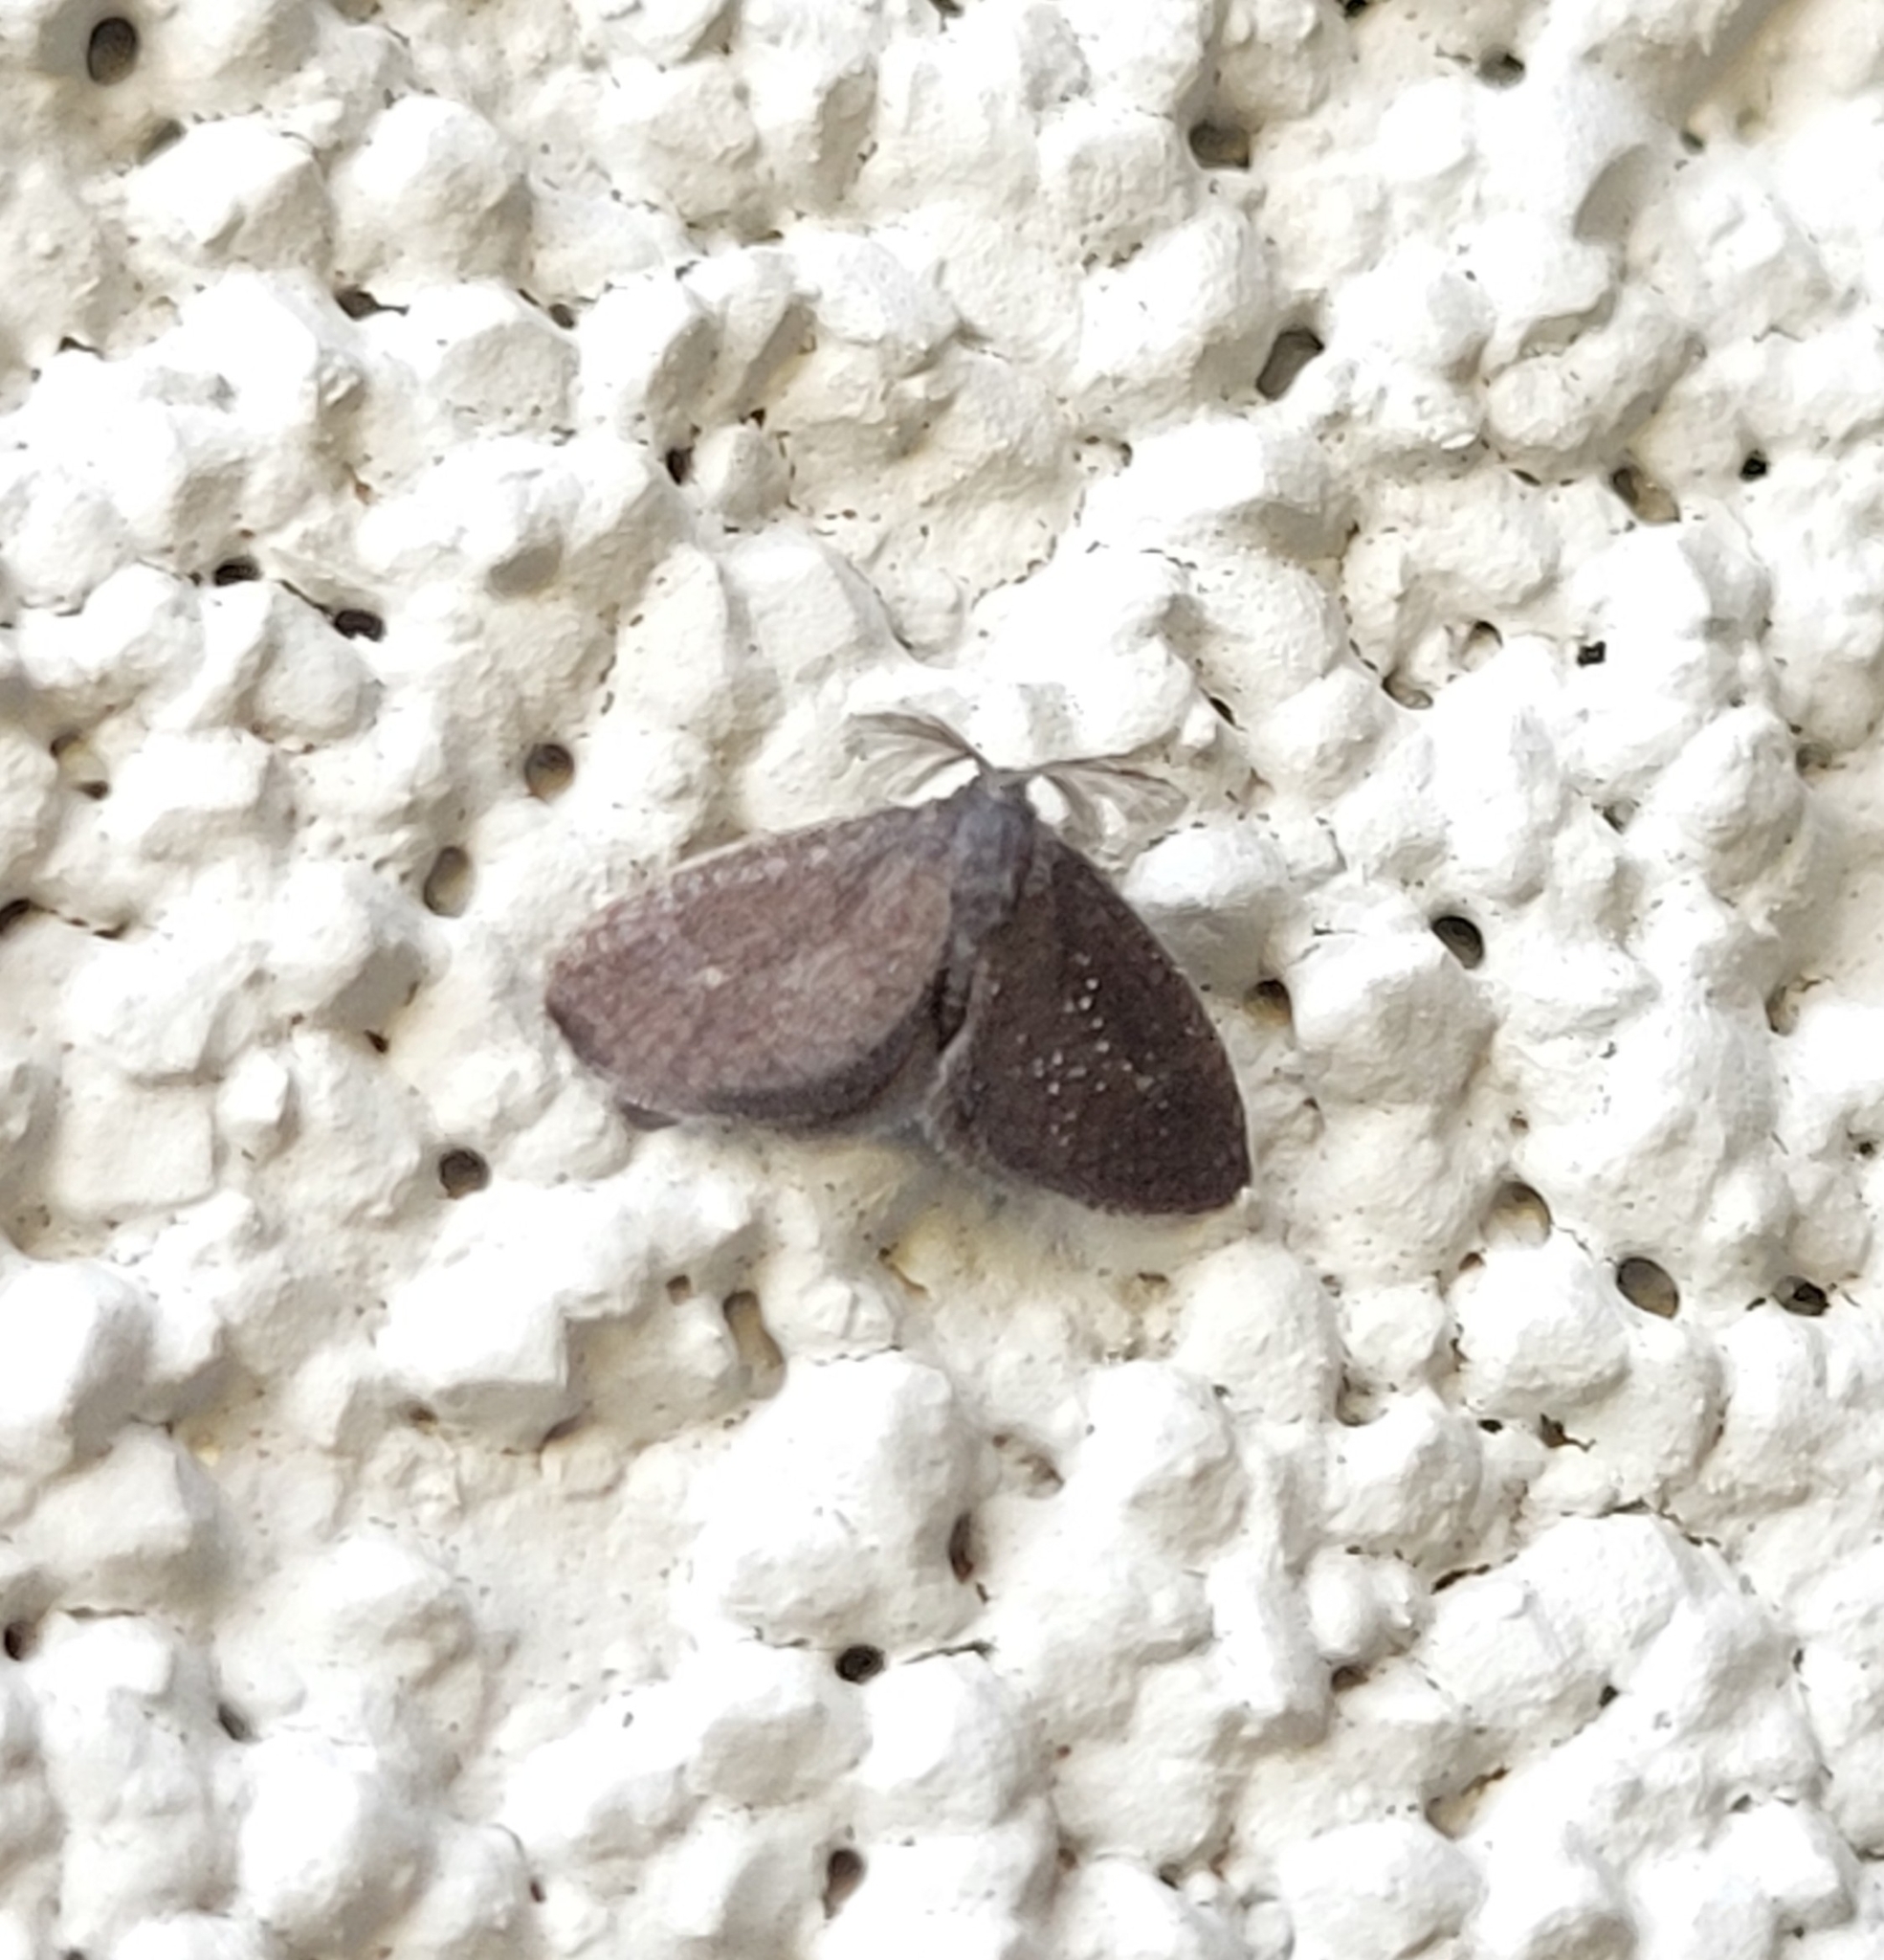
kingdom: Animalia
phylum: Arthropoda
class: Insecta
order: Lepidoptera
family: Epipyropidae
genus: Fulgoraecia
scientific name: Fulgoraecia exigua
